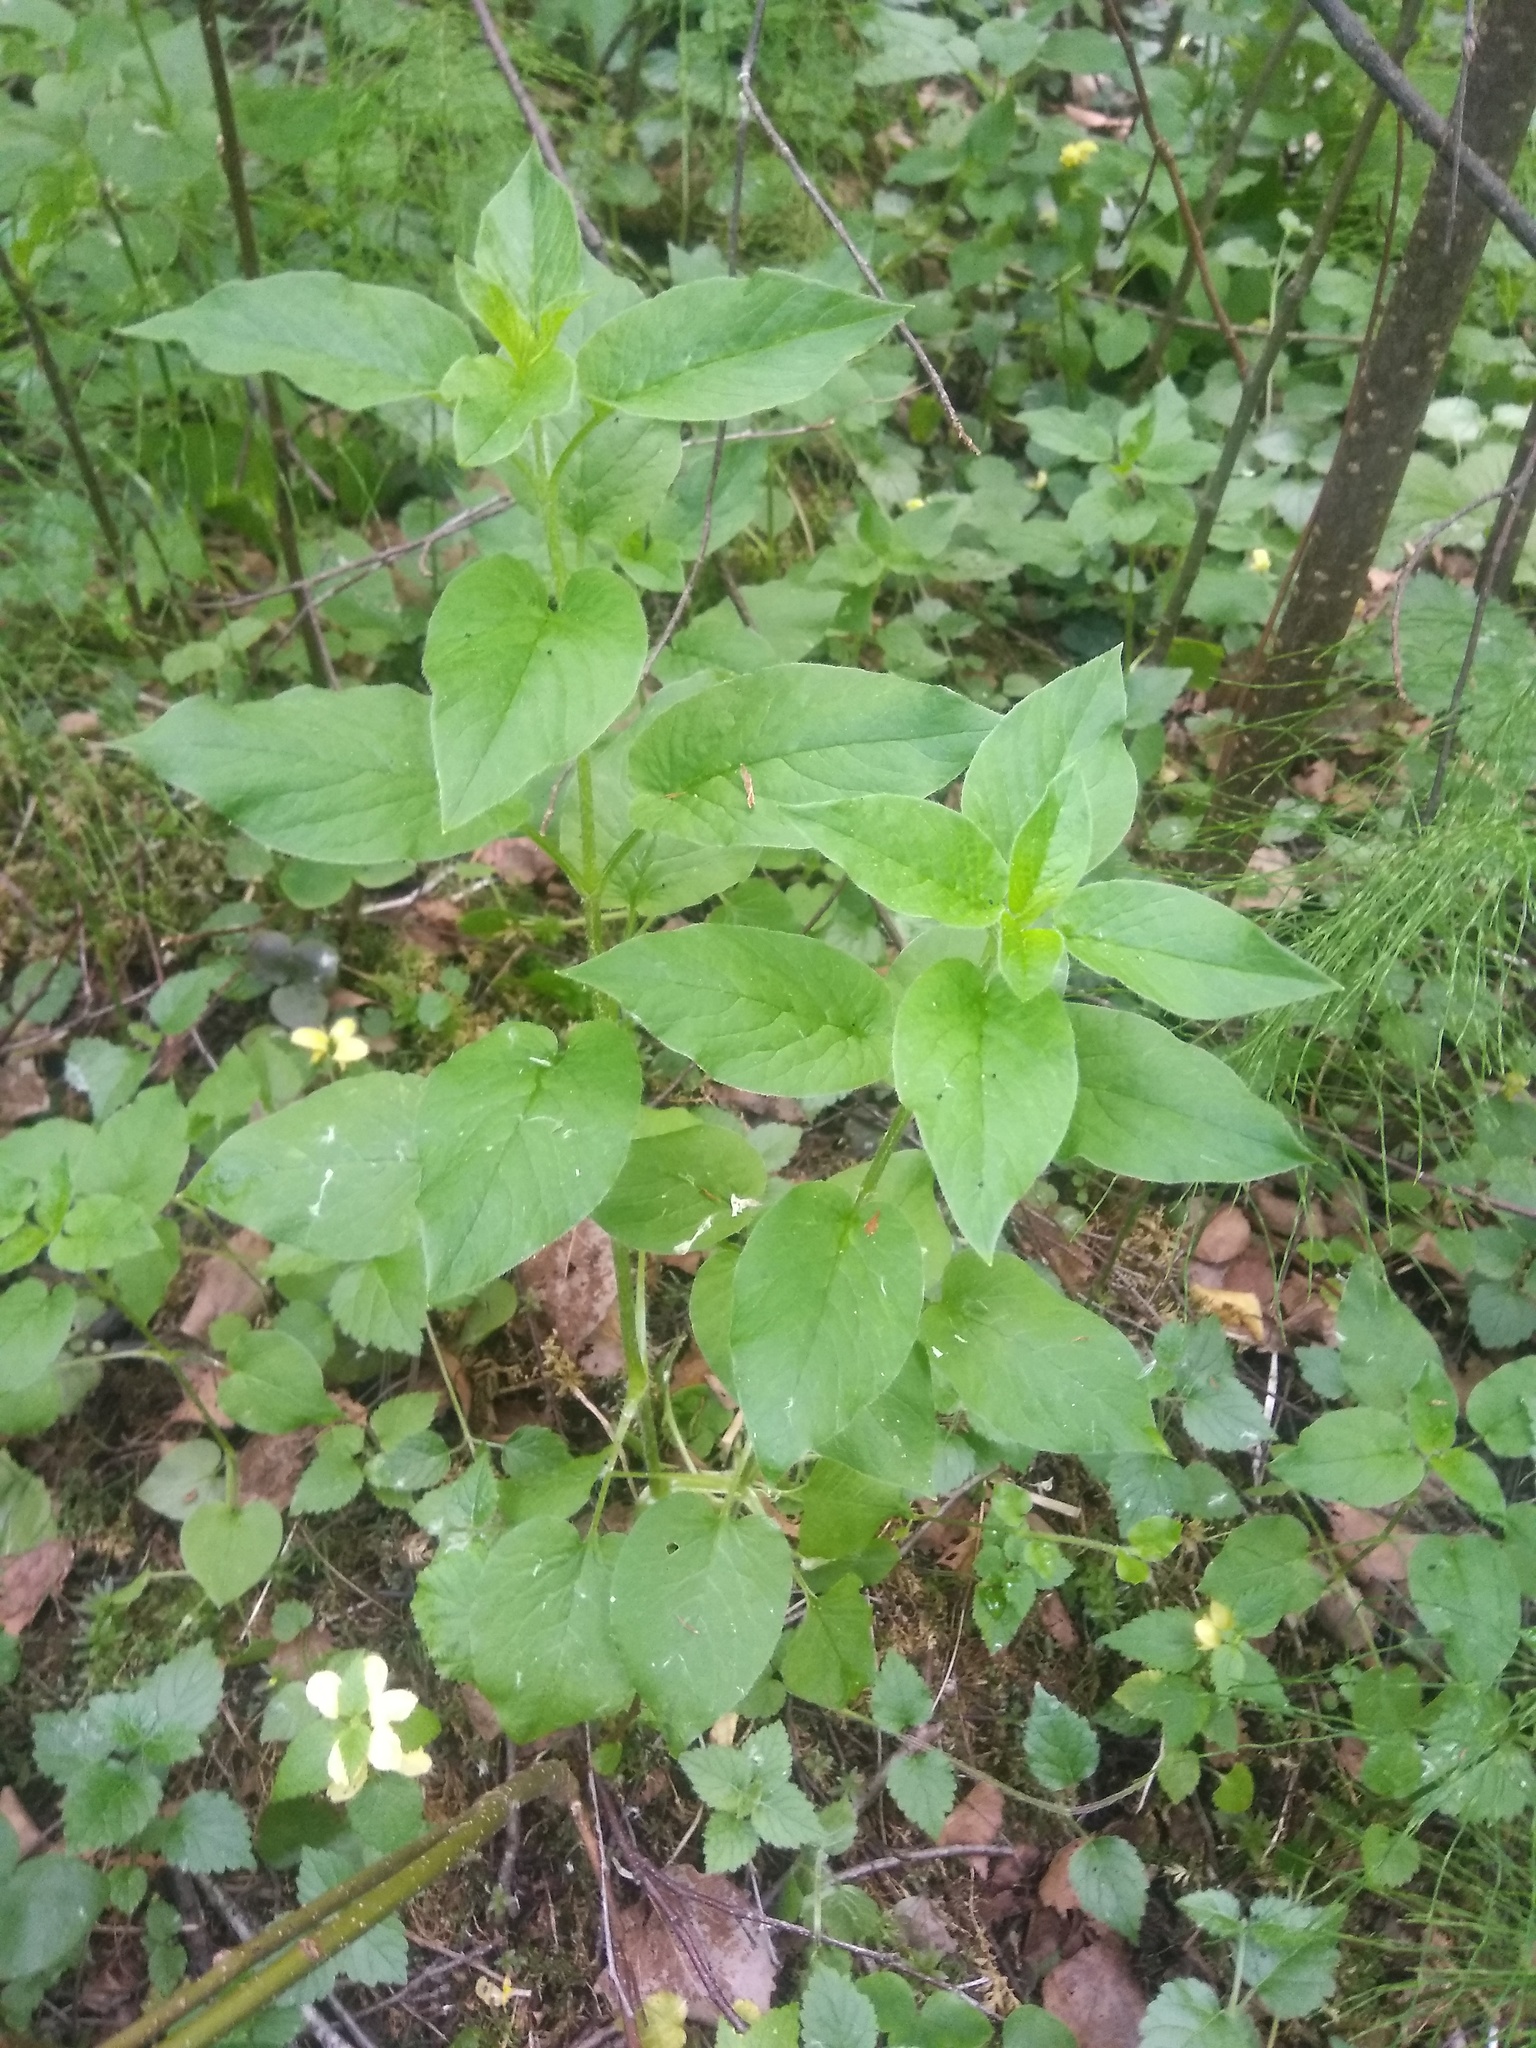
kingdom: Plantae
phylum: Tracheophyta
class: Magnoliopsida
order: Caryophyllales
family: Caryophyllaceae
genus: Stellaria
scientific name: Stellaria nemorum
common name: Wood stitchwort
